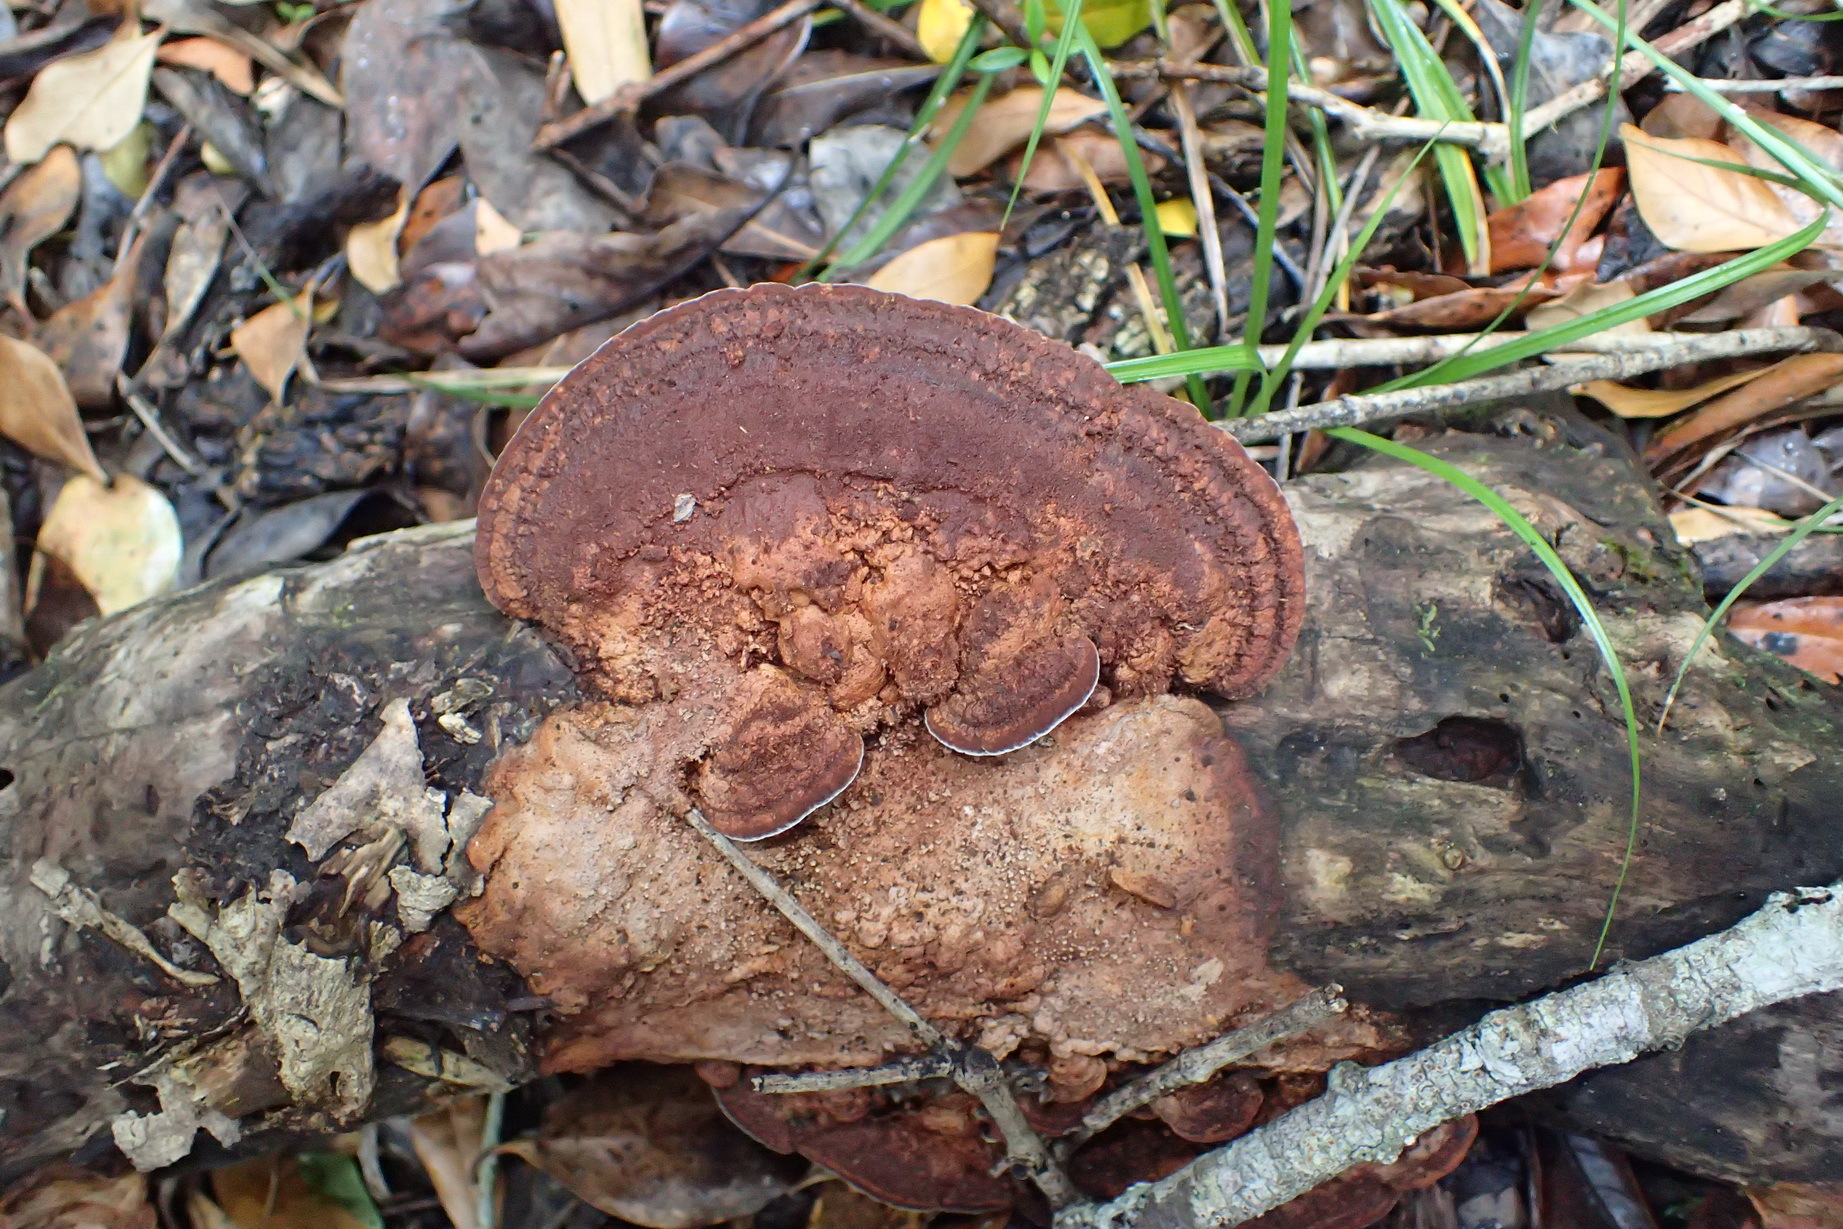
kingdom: Fungi
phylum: Basidiomycota
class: Agaricomycetes
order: Hymenochaetales
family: Hymenochaetaceae
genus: Phellinus
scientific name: Phellinus gilvus
